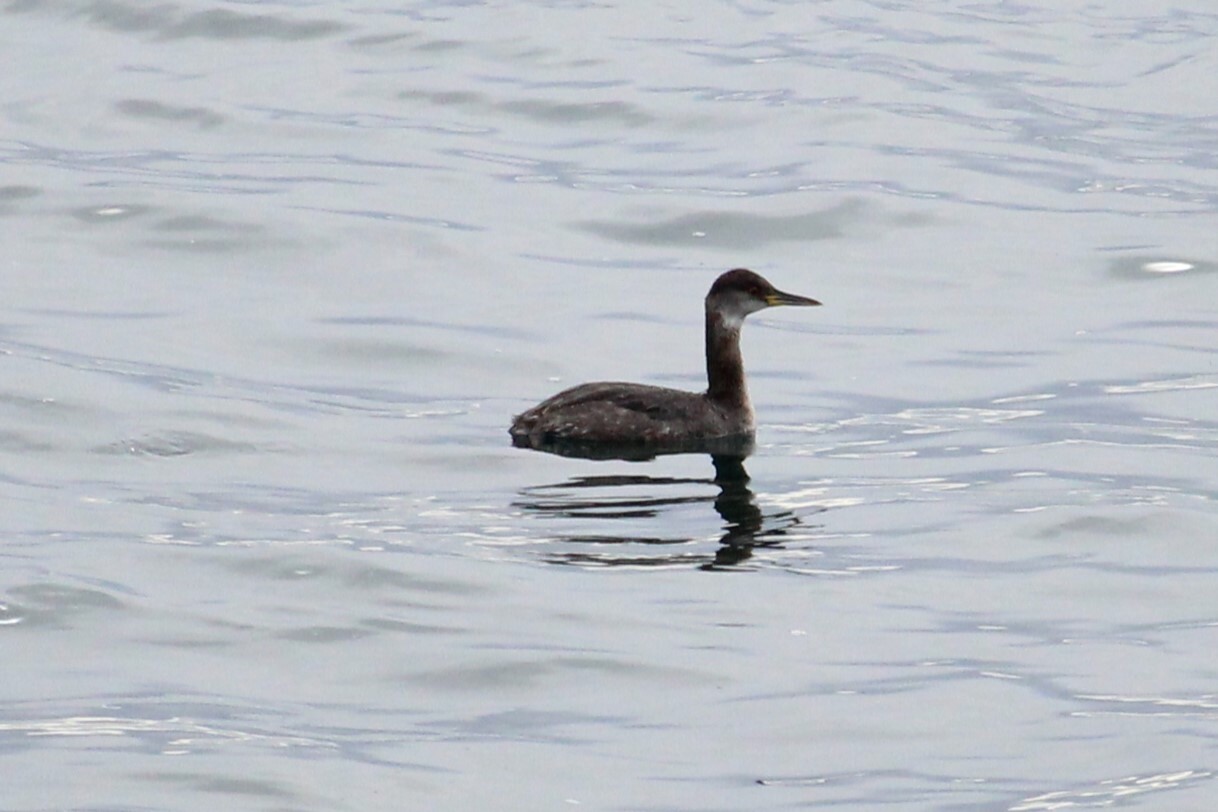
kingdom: Animalia
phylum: Chordata
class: Aves
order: Podicipediformes
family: Podicipedidae
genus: Podiceps
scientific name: Podiceps grisegena
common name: Red-necked grebe
